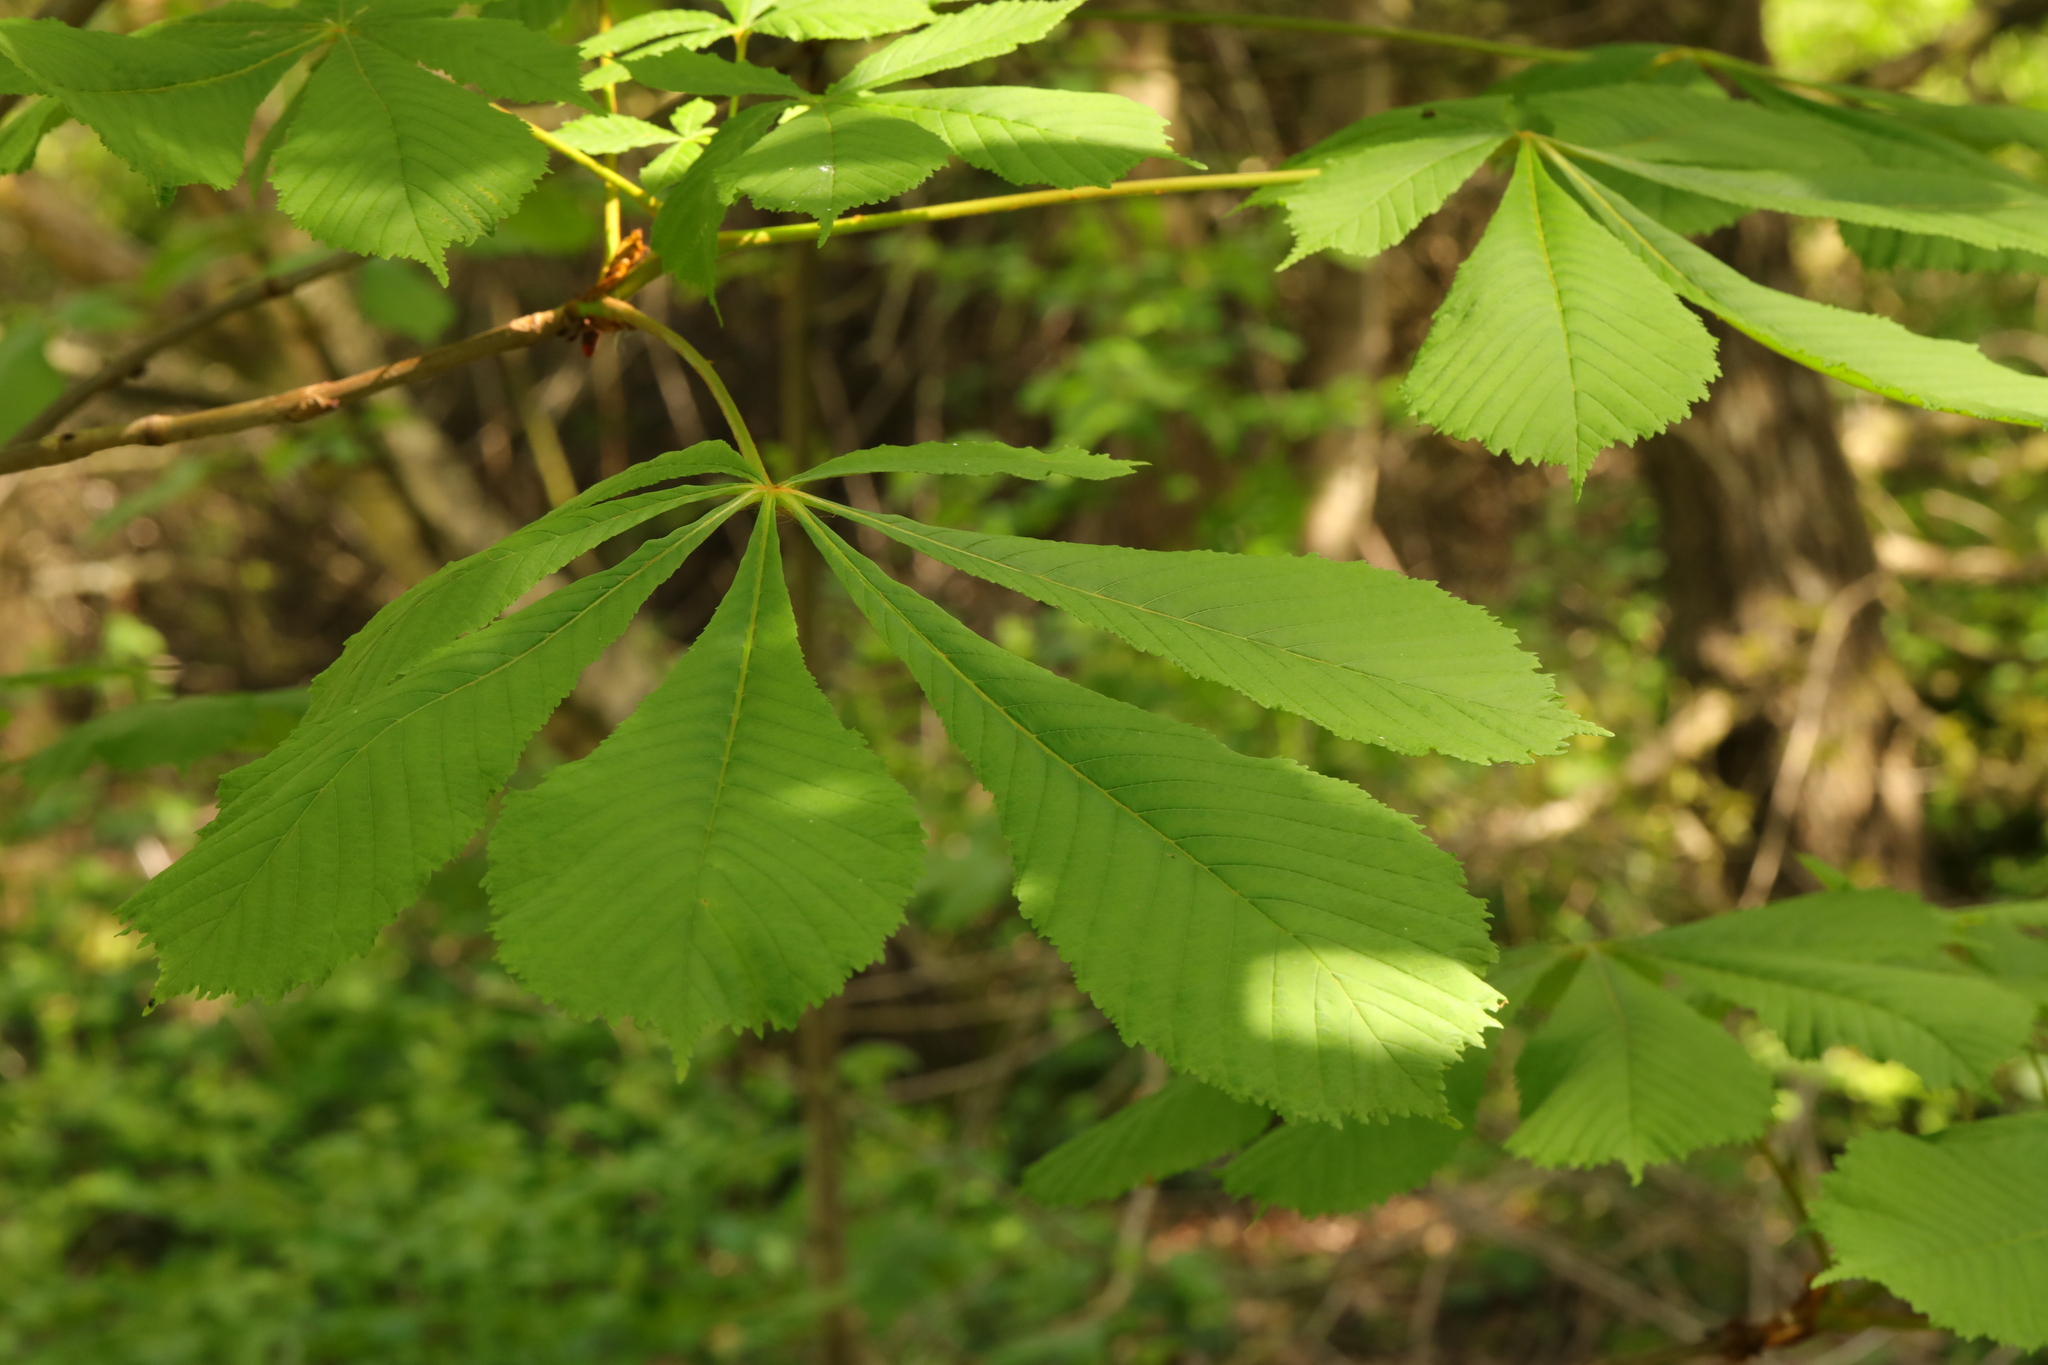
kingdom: Plantae
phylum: Tracheophyta
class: Magnoliopsida
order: Sapindales
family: Sapindaceae
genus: Aesculus
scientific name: Aesculus hippocastanum
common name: Horse-chestnut
